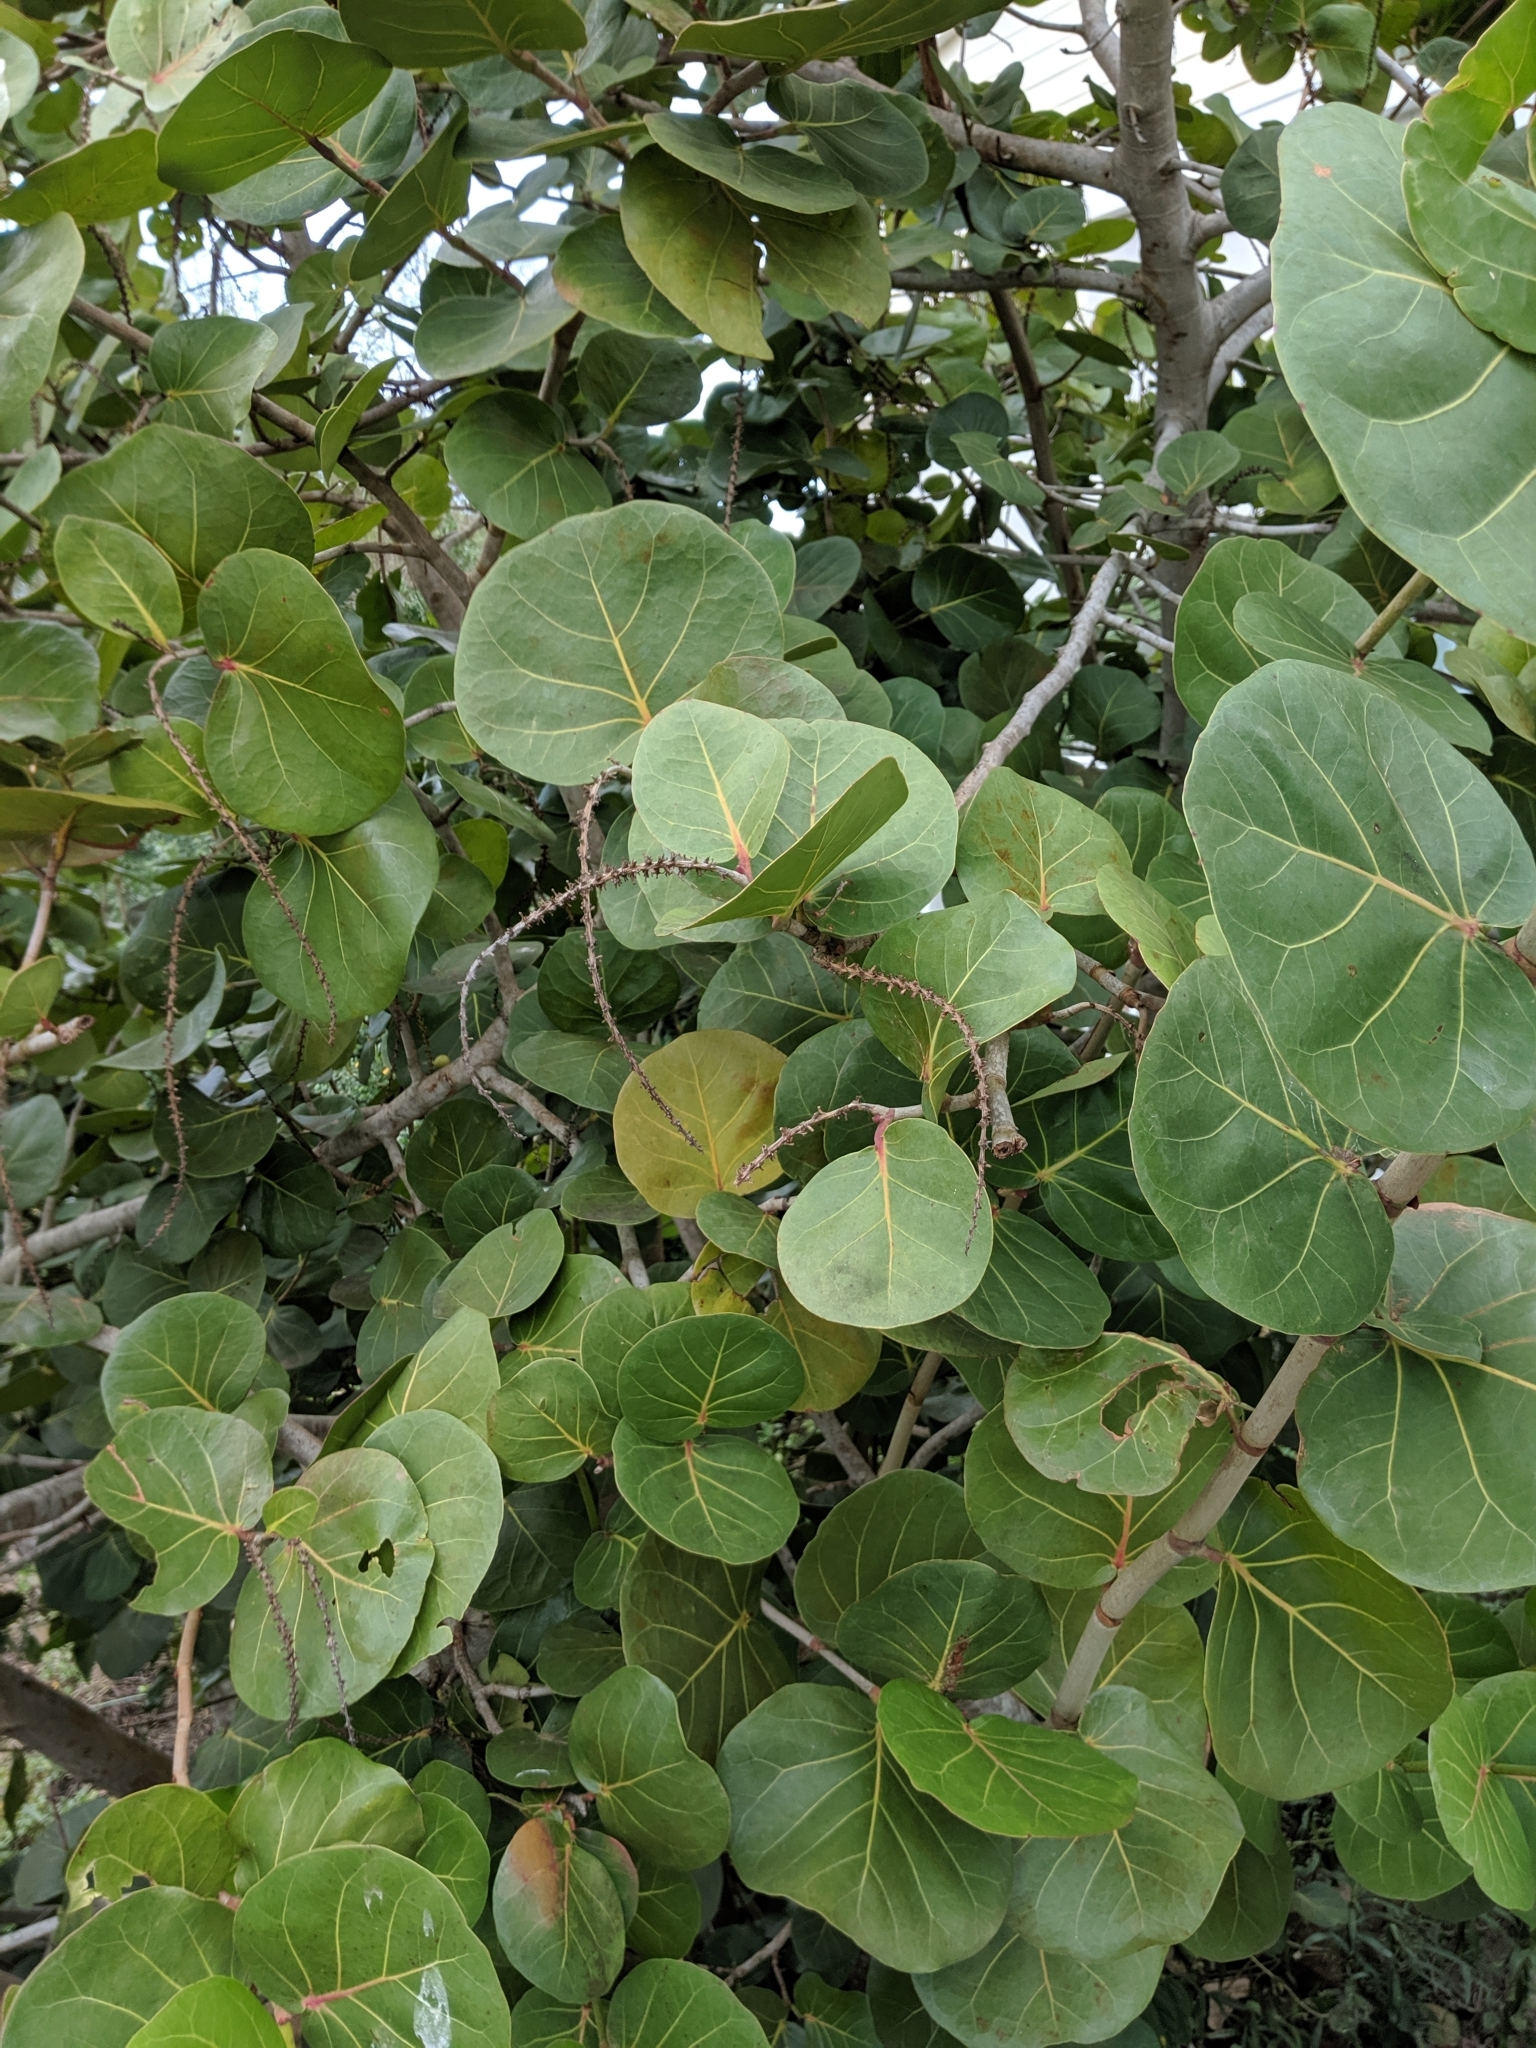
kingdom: Plantae
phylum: Tracheophyta
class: Magnoliopsida
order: Caryophyllales
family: Polygonaceae
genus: Coccoloba
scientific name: Coccoloba uvifera
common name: Seagrape
